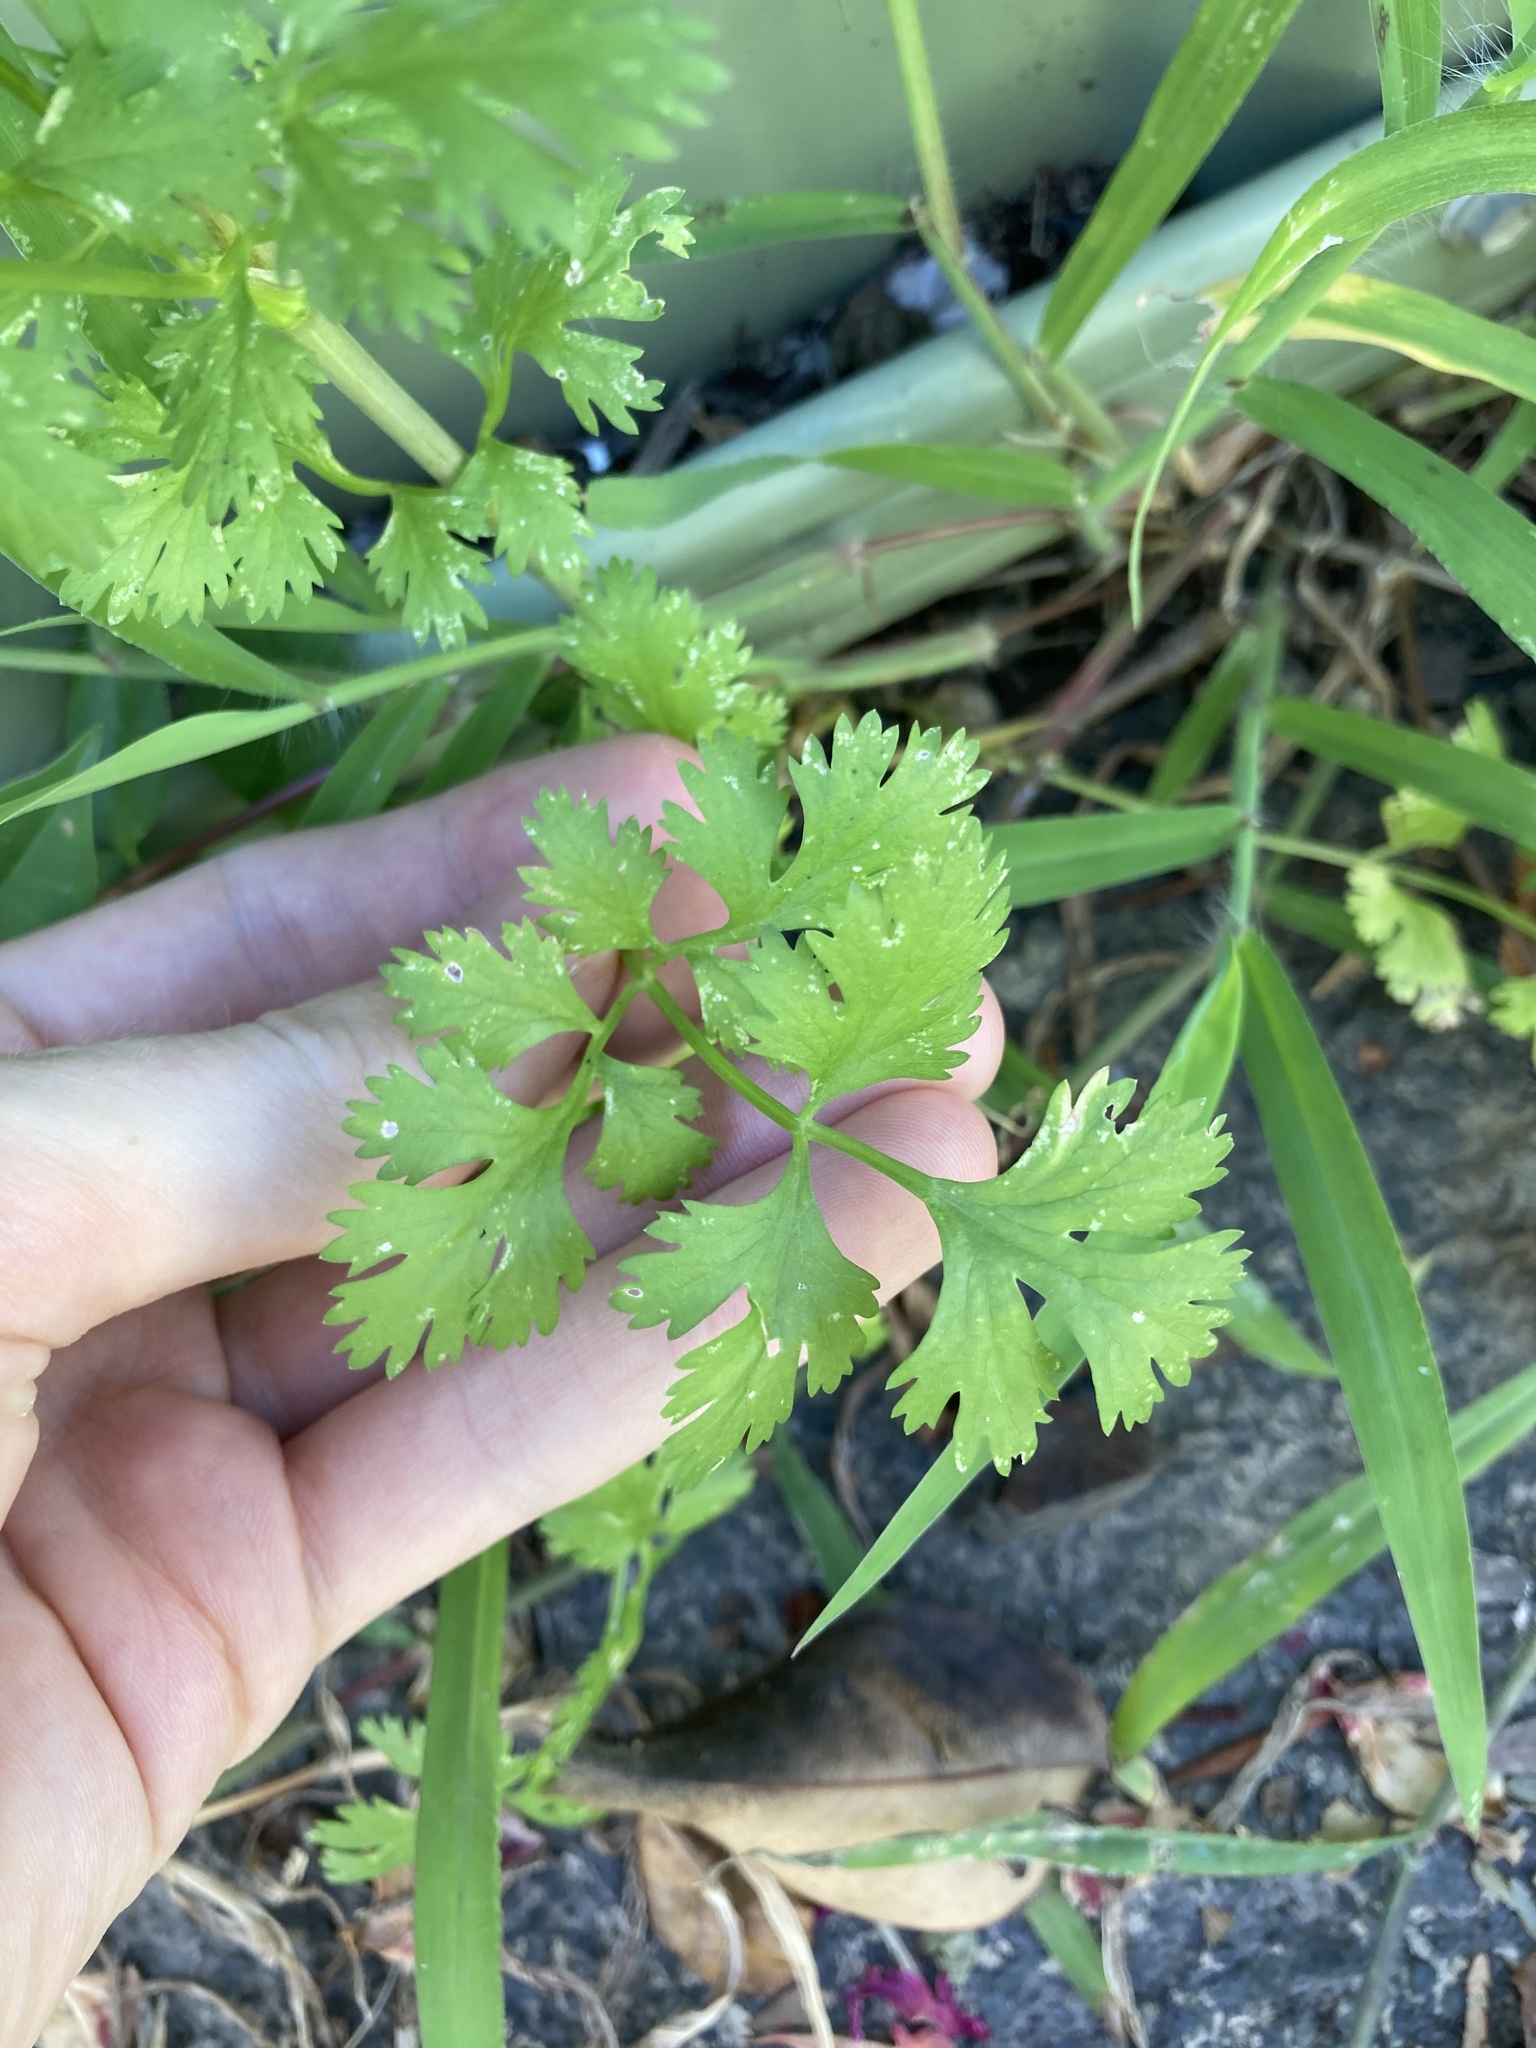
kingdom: Plantae
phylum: Tracheophyta
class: Magnoliopsida
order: Apiales
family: Apiaceae
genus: Petroselinum
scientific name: Petroselinum crispum
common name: Parsley
